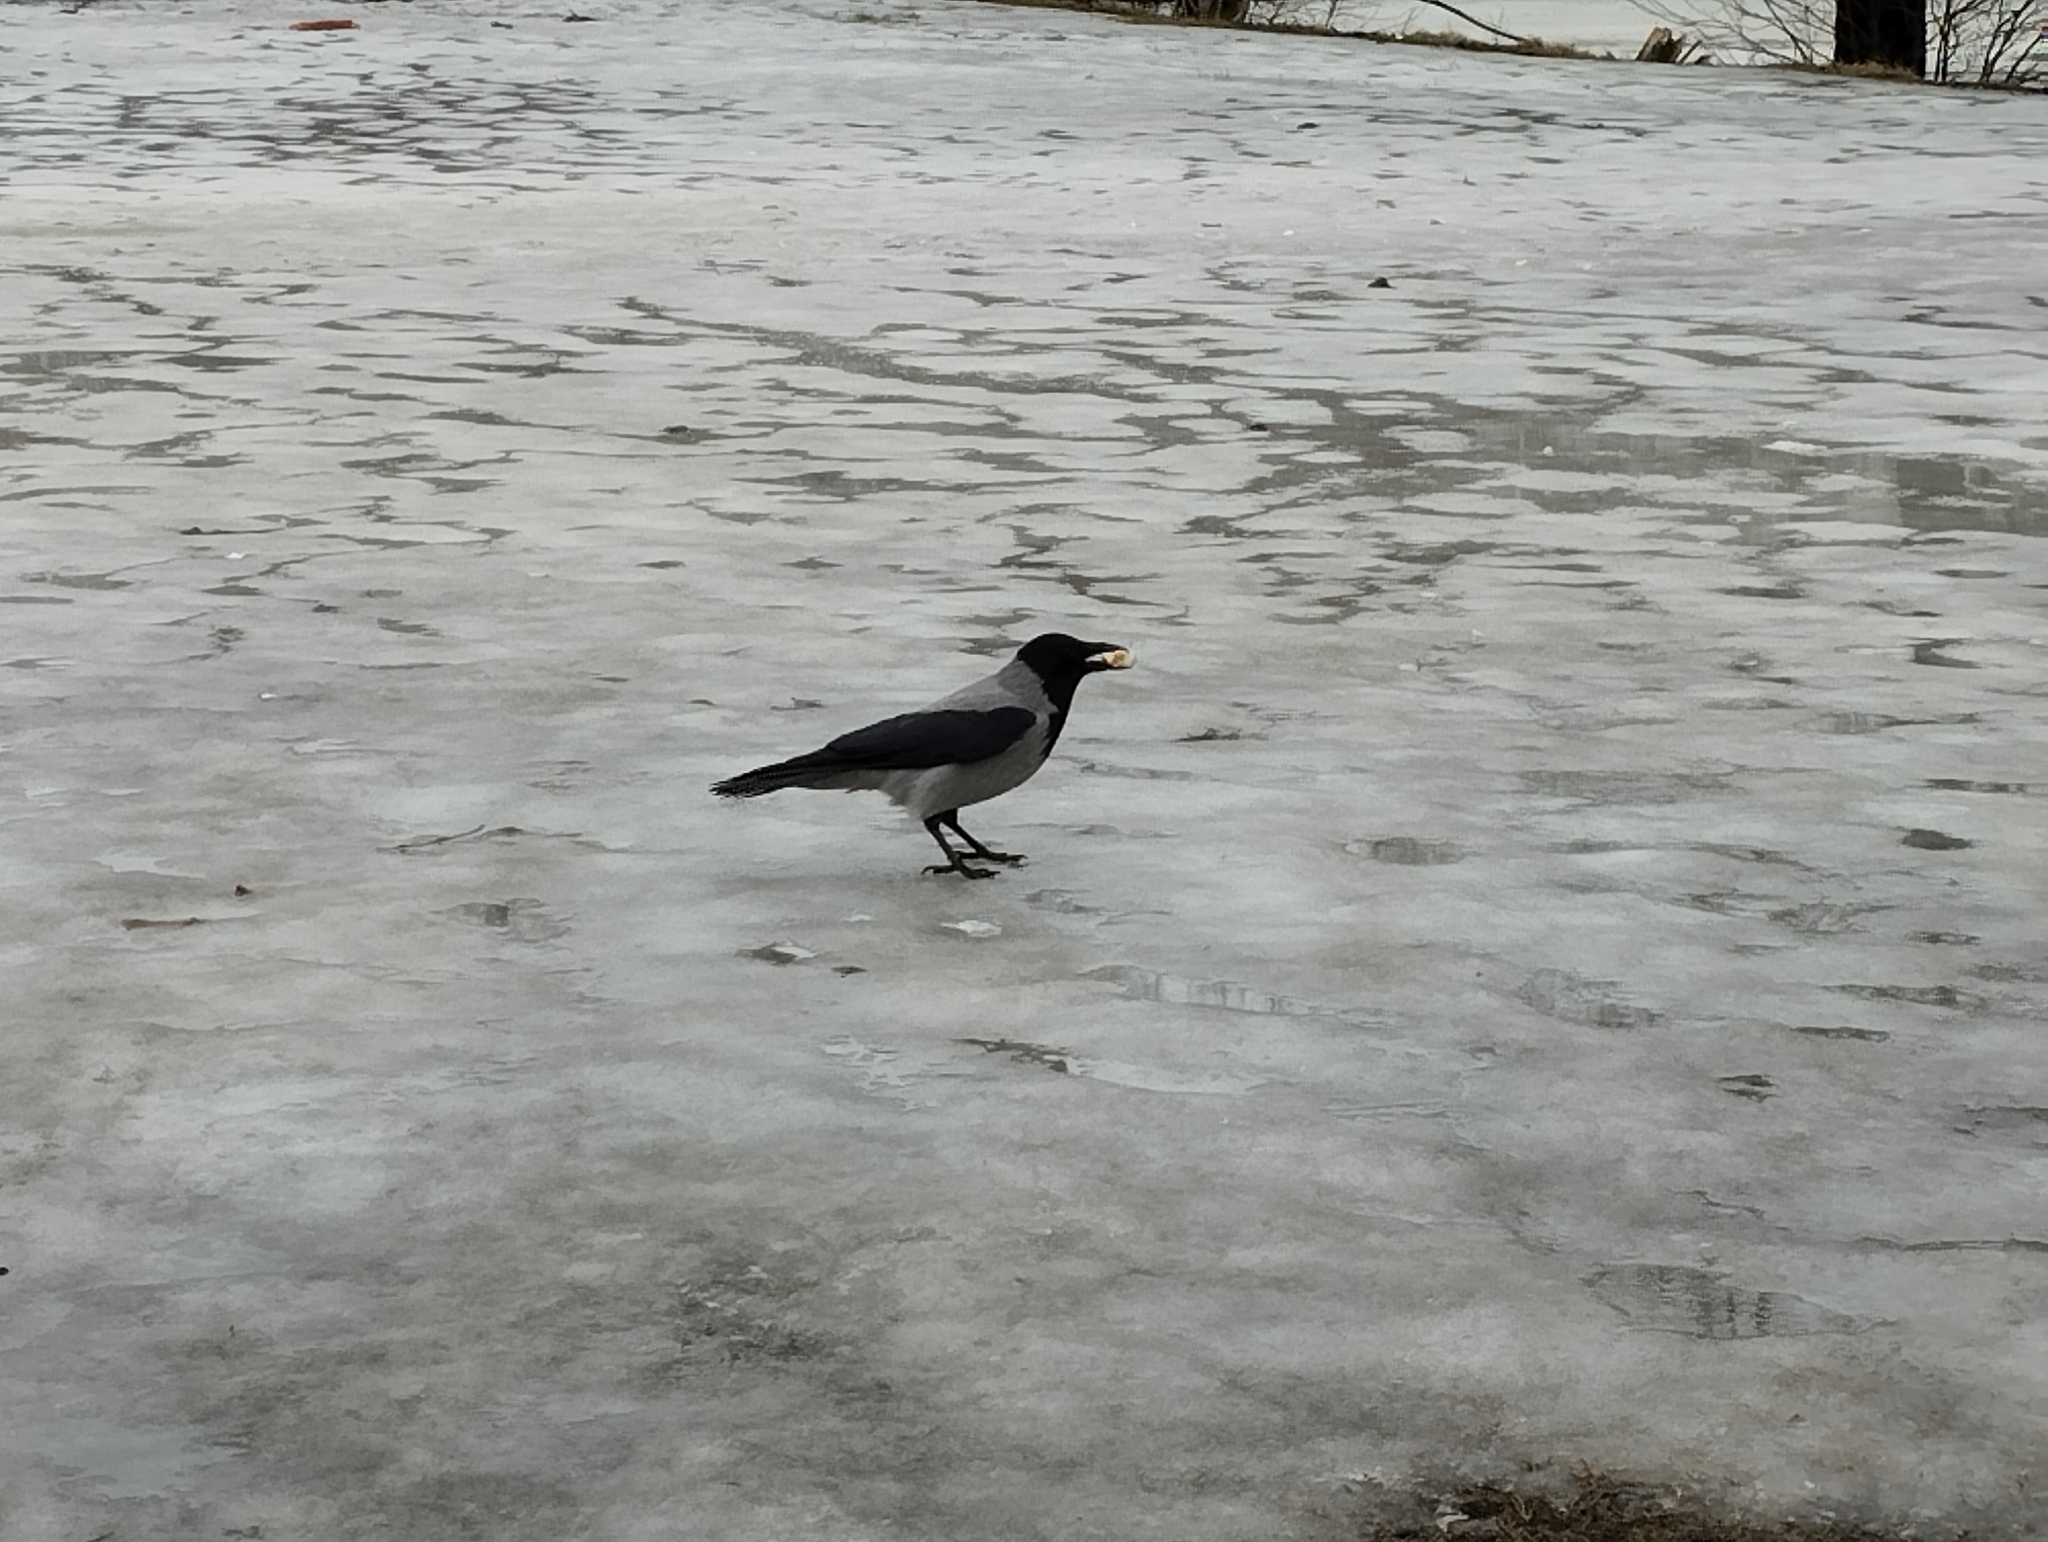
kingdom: Animalia
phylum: Chordata
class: Aves
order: Passeriformes
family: Corvidae
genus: Corvus
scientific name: Corvus cornix
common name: Hooded crow
